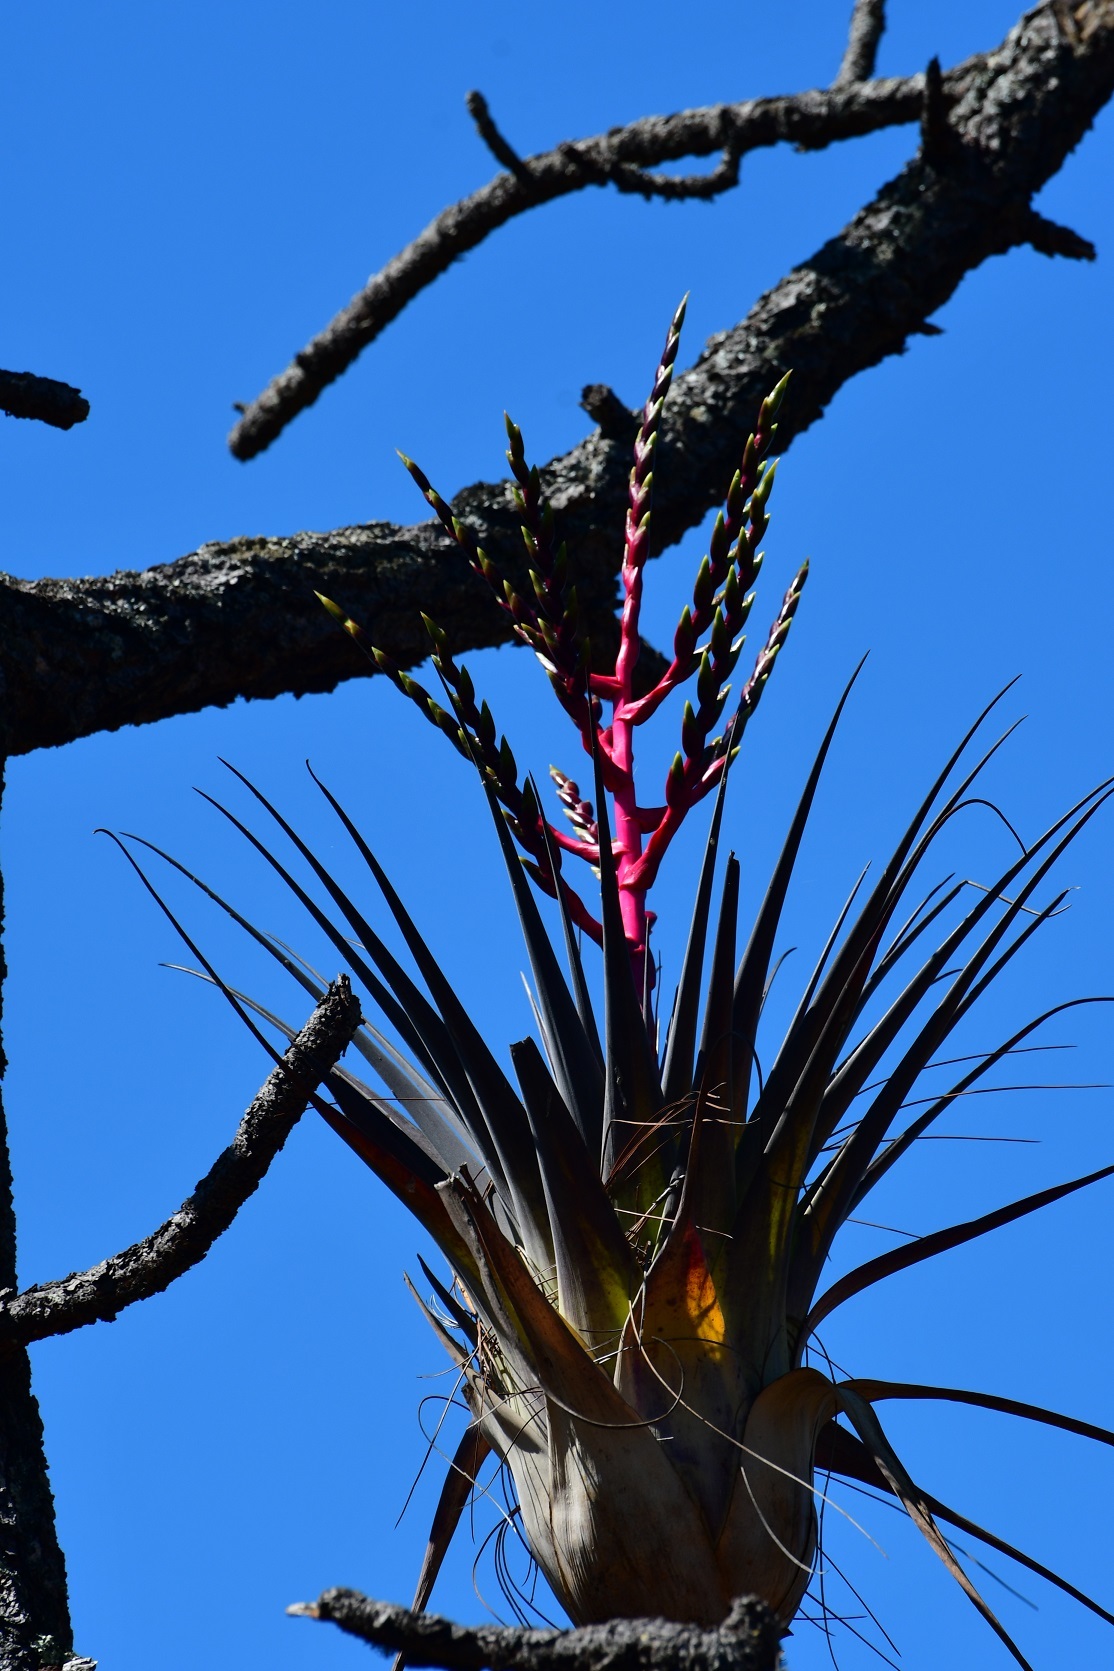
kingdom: Plantae
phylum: Tracheophyta
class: Liliopsida
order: Poales
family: Bromeliaceae
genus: Tillandsia
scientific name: Tillandsia comitanensis
